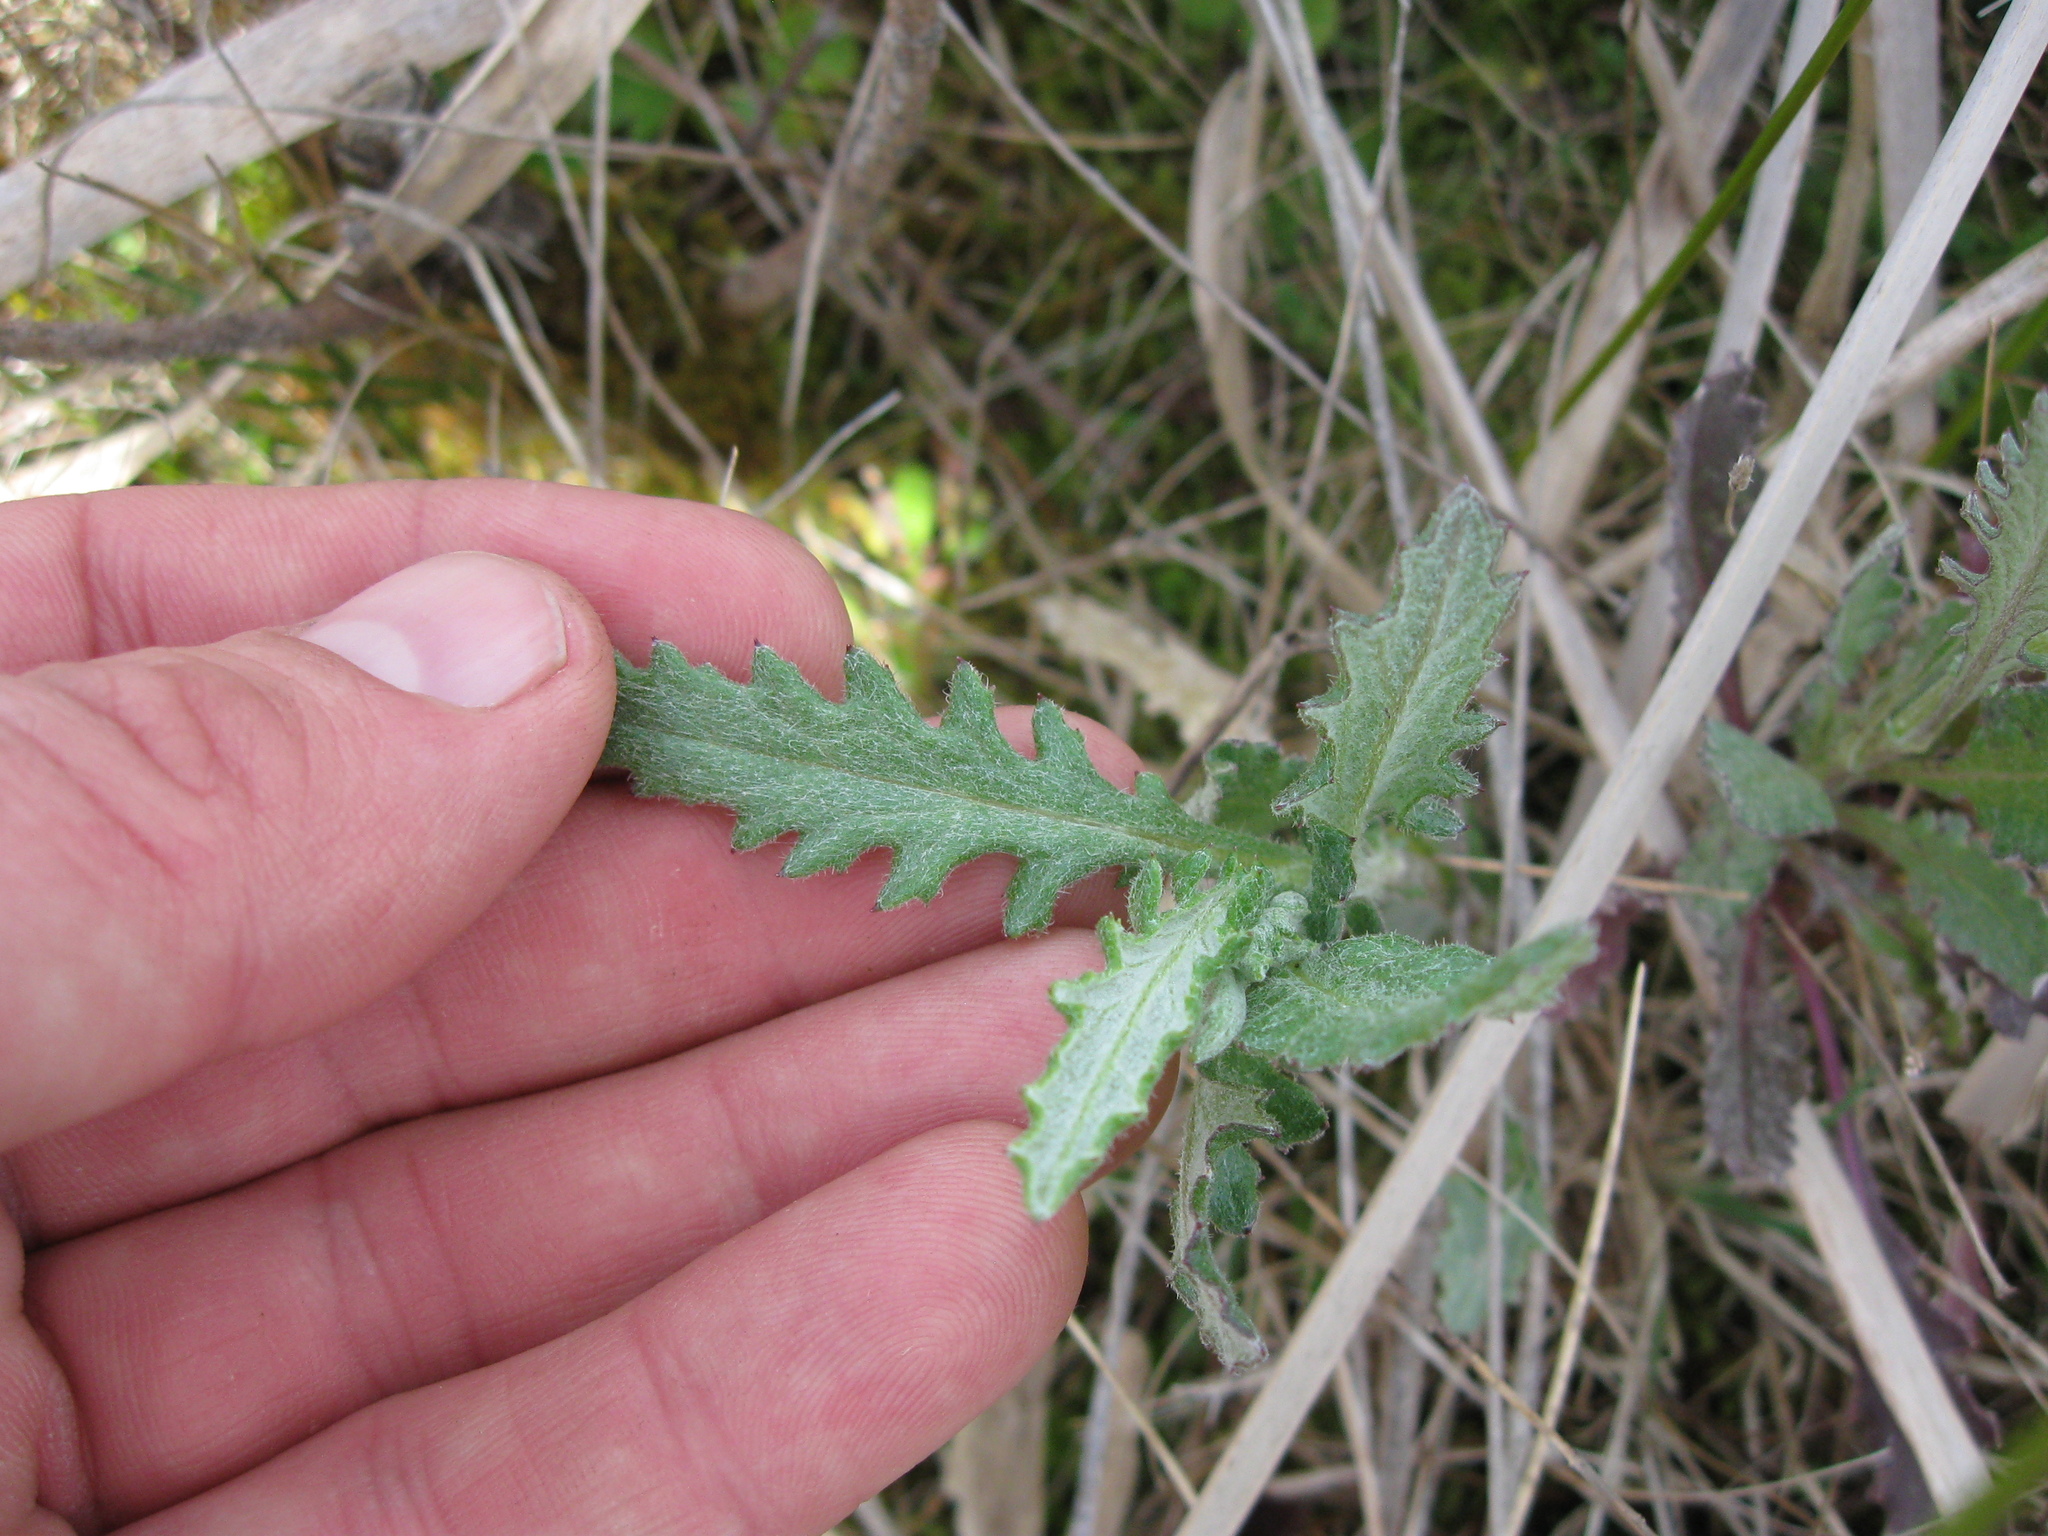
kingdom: Plantae
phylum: Tracheophyta
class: Magnoliopsida
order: Asterales
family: Asteraceae
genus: Senecio
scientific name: Senecio glomeratus
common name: Cutleaf burnweed
